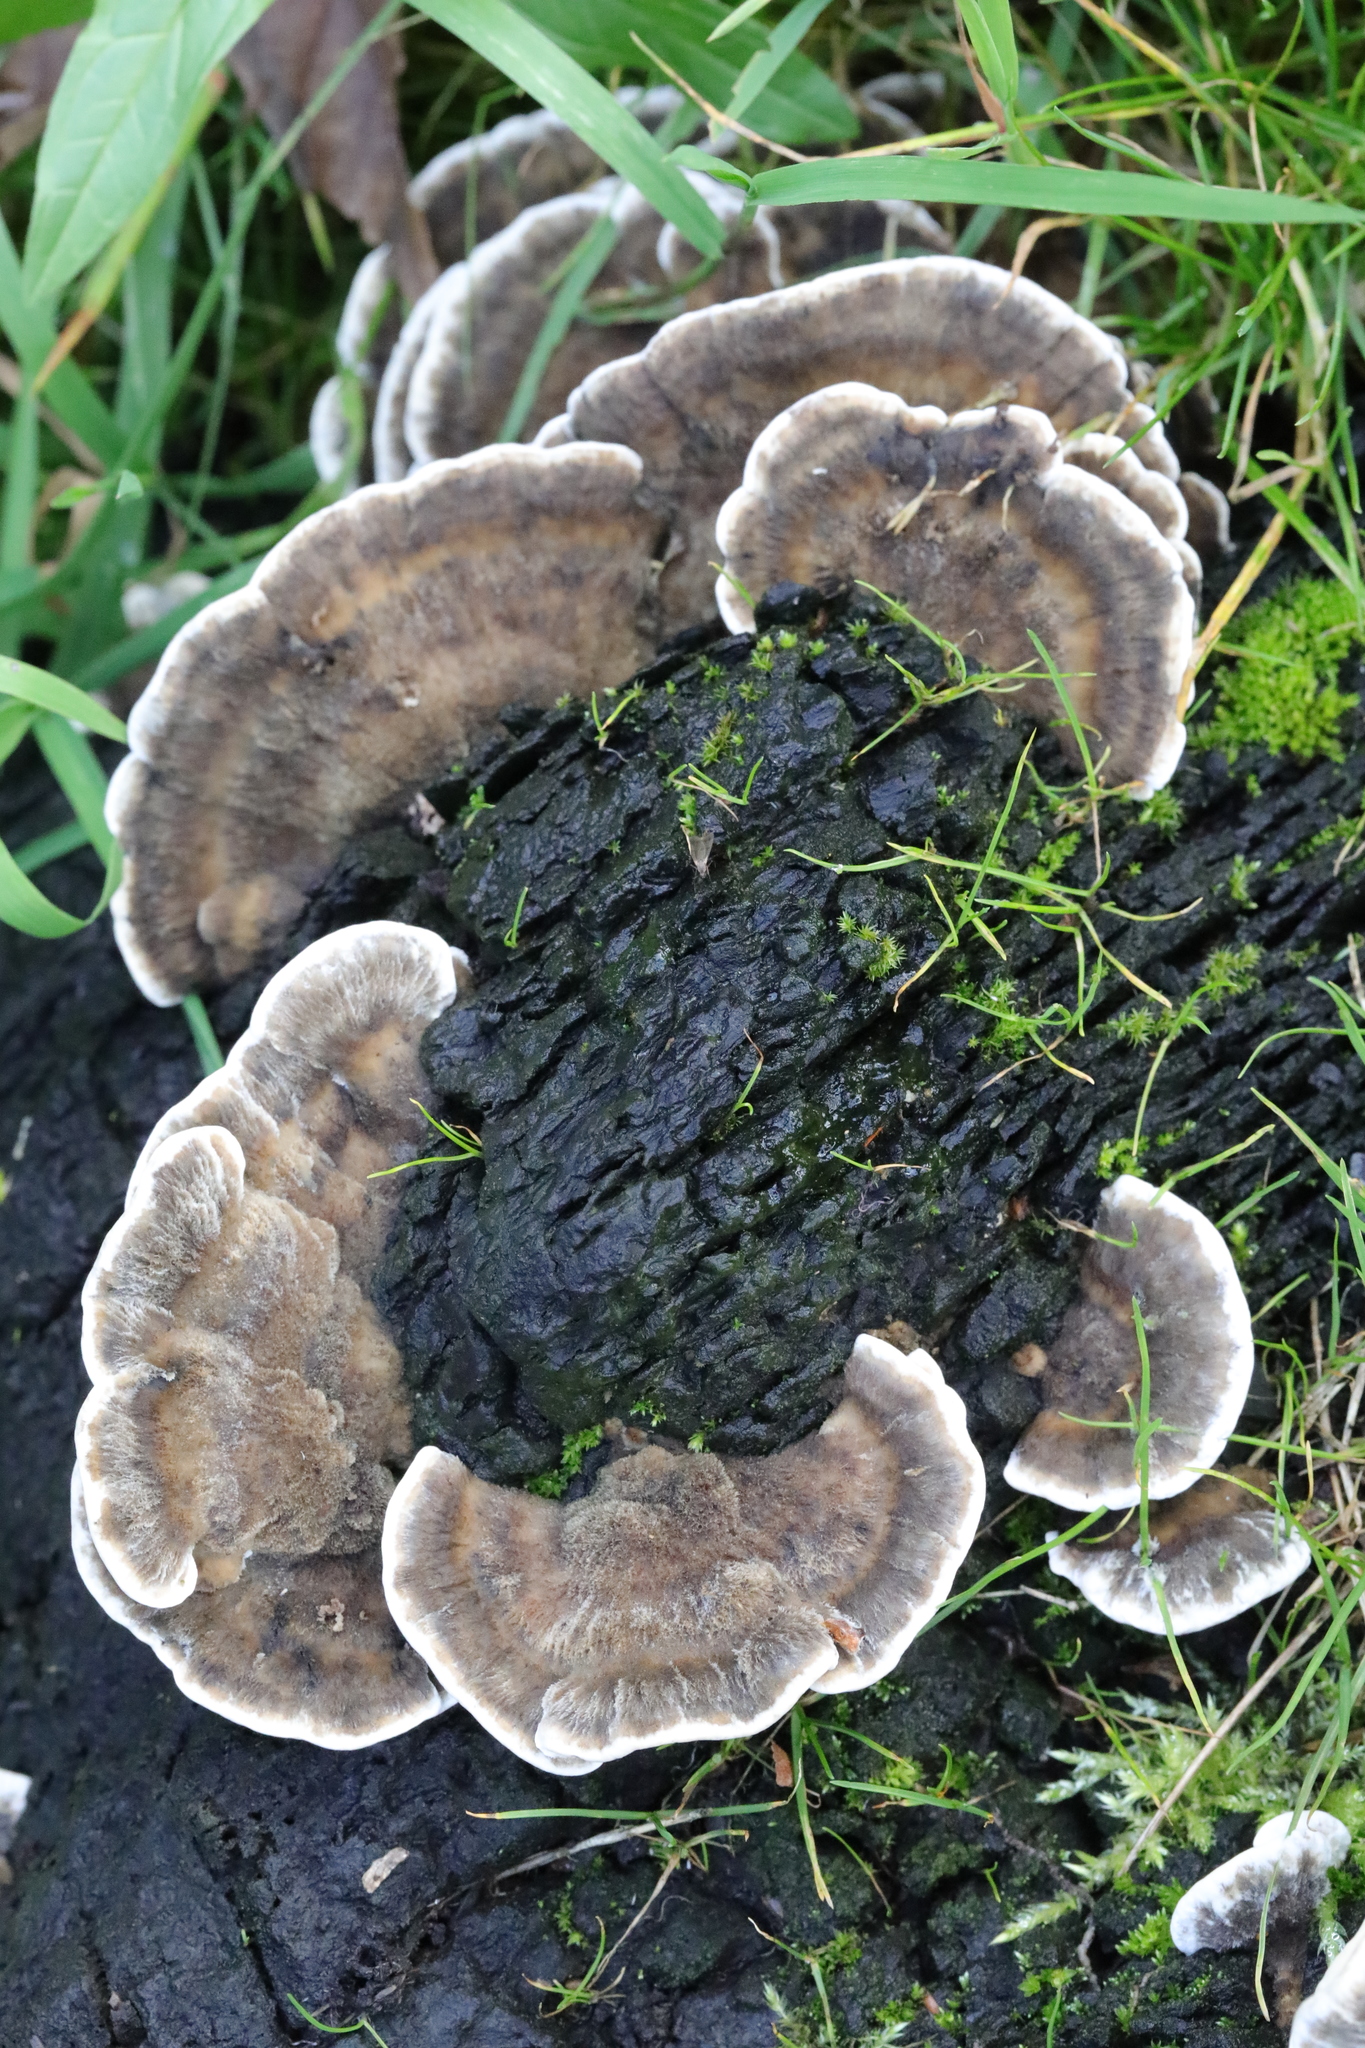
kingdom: Fungi
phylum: Basidiomycota
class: Agaricomycetes
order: Polyporales
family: Phanerochaetaceae
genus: Bjerkandera
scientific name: Bjerkandera adusta
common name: Smoky bracket
